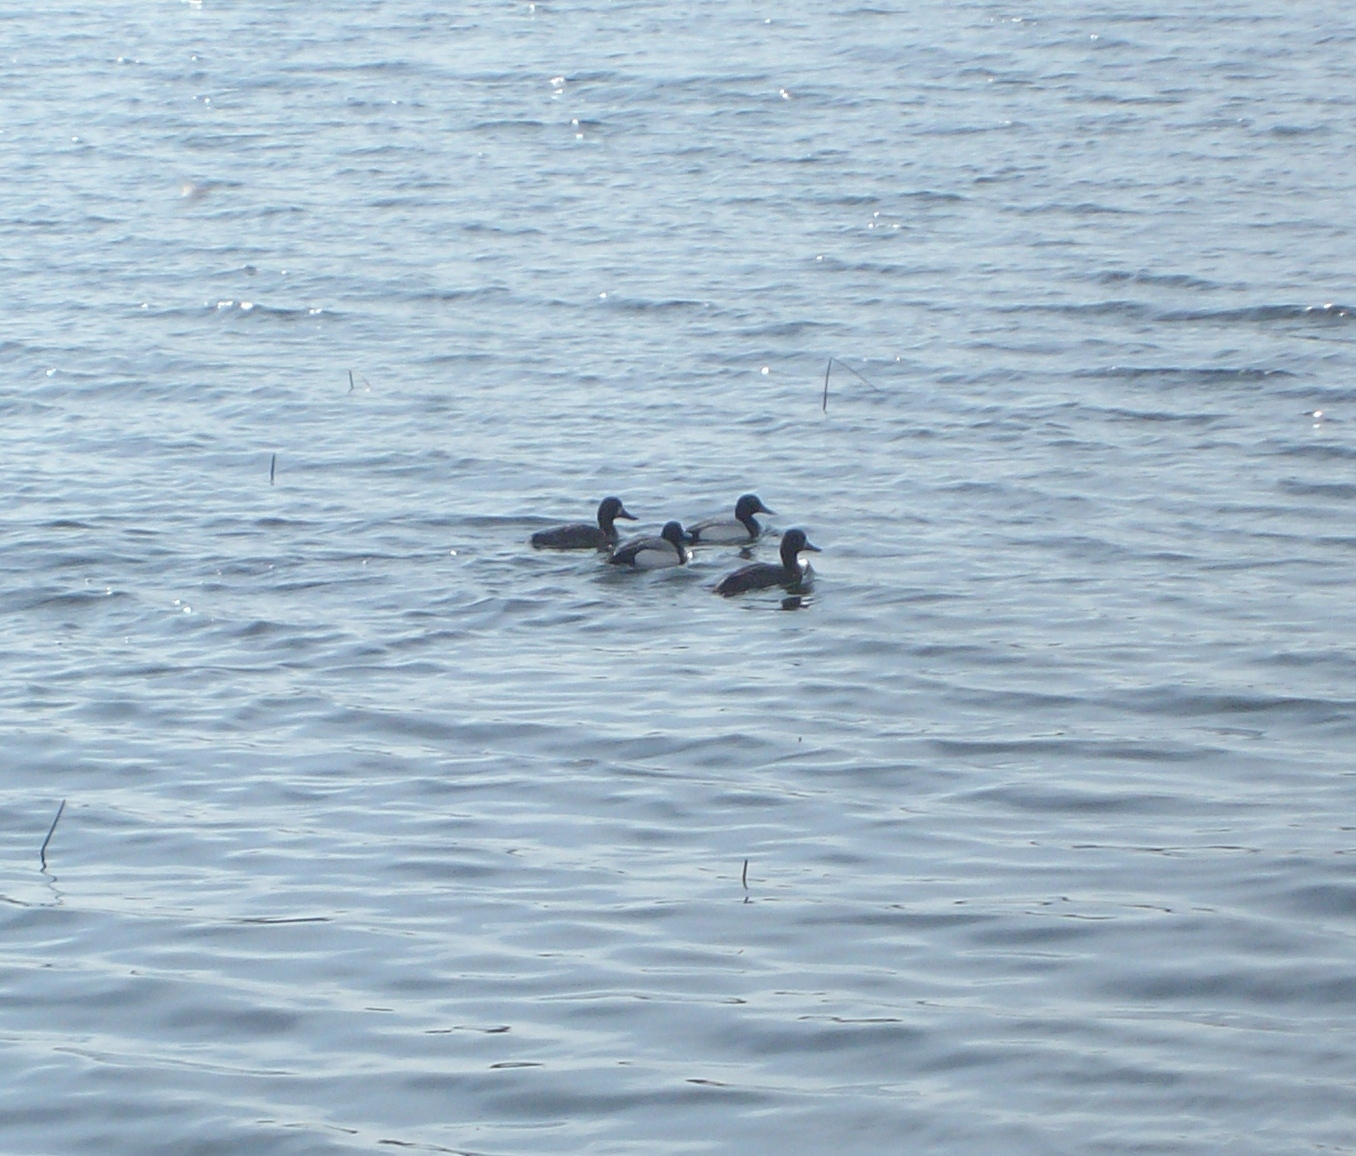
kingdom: Animalia
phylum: Chordata
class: Aves
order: Anseriformes
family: Anatidae
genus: Aythya
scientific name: Aythya marila
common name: Greater scaup
